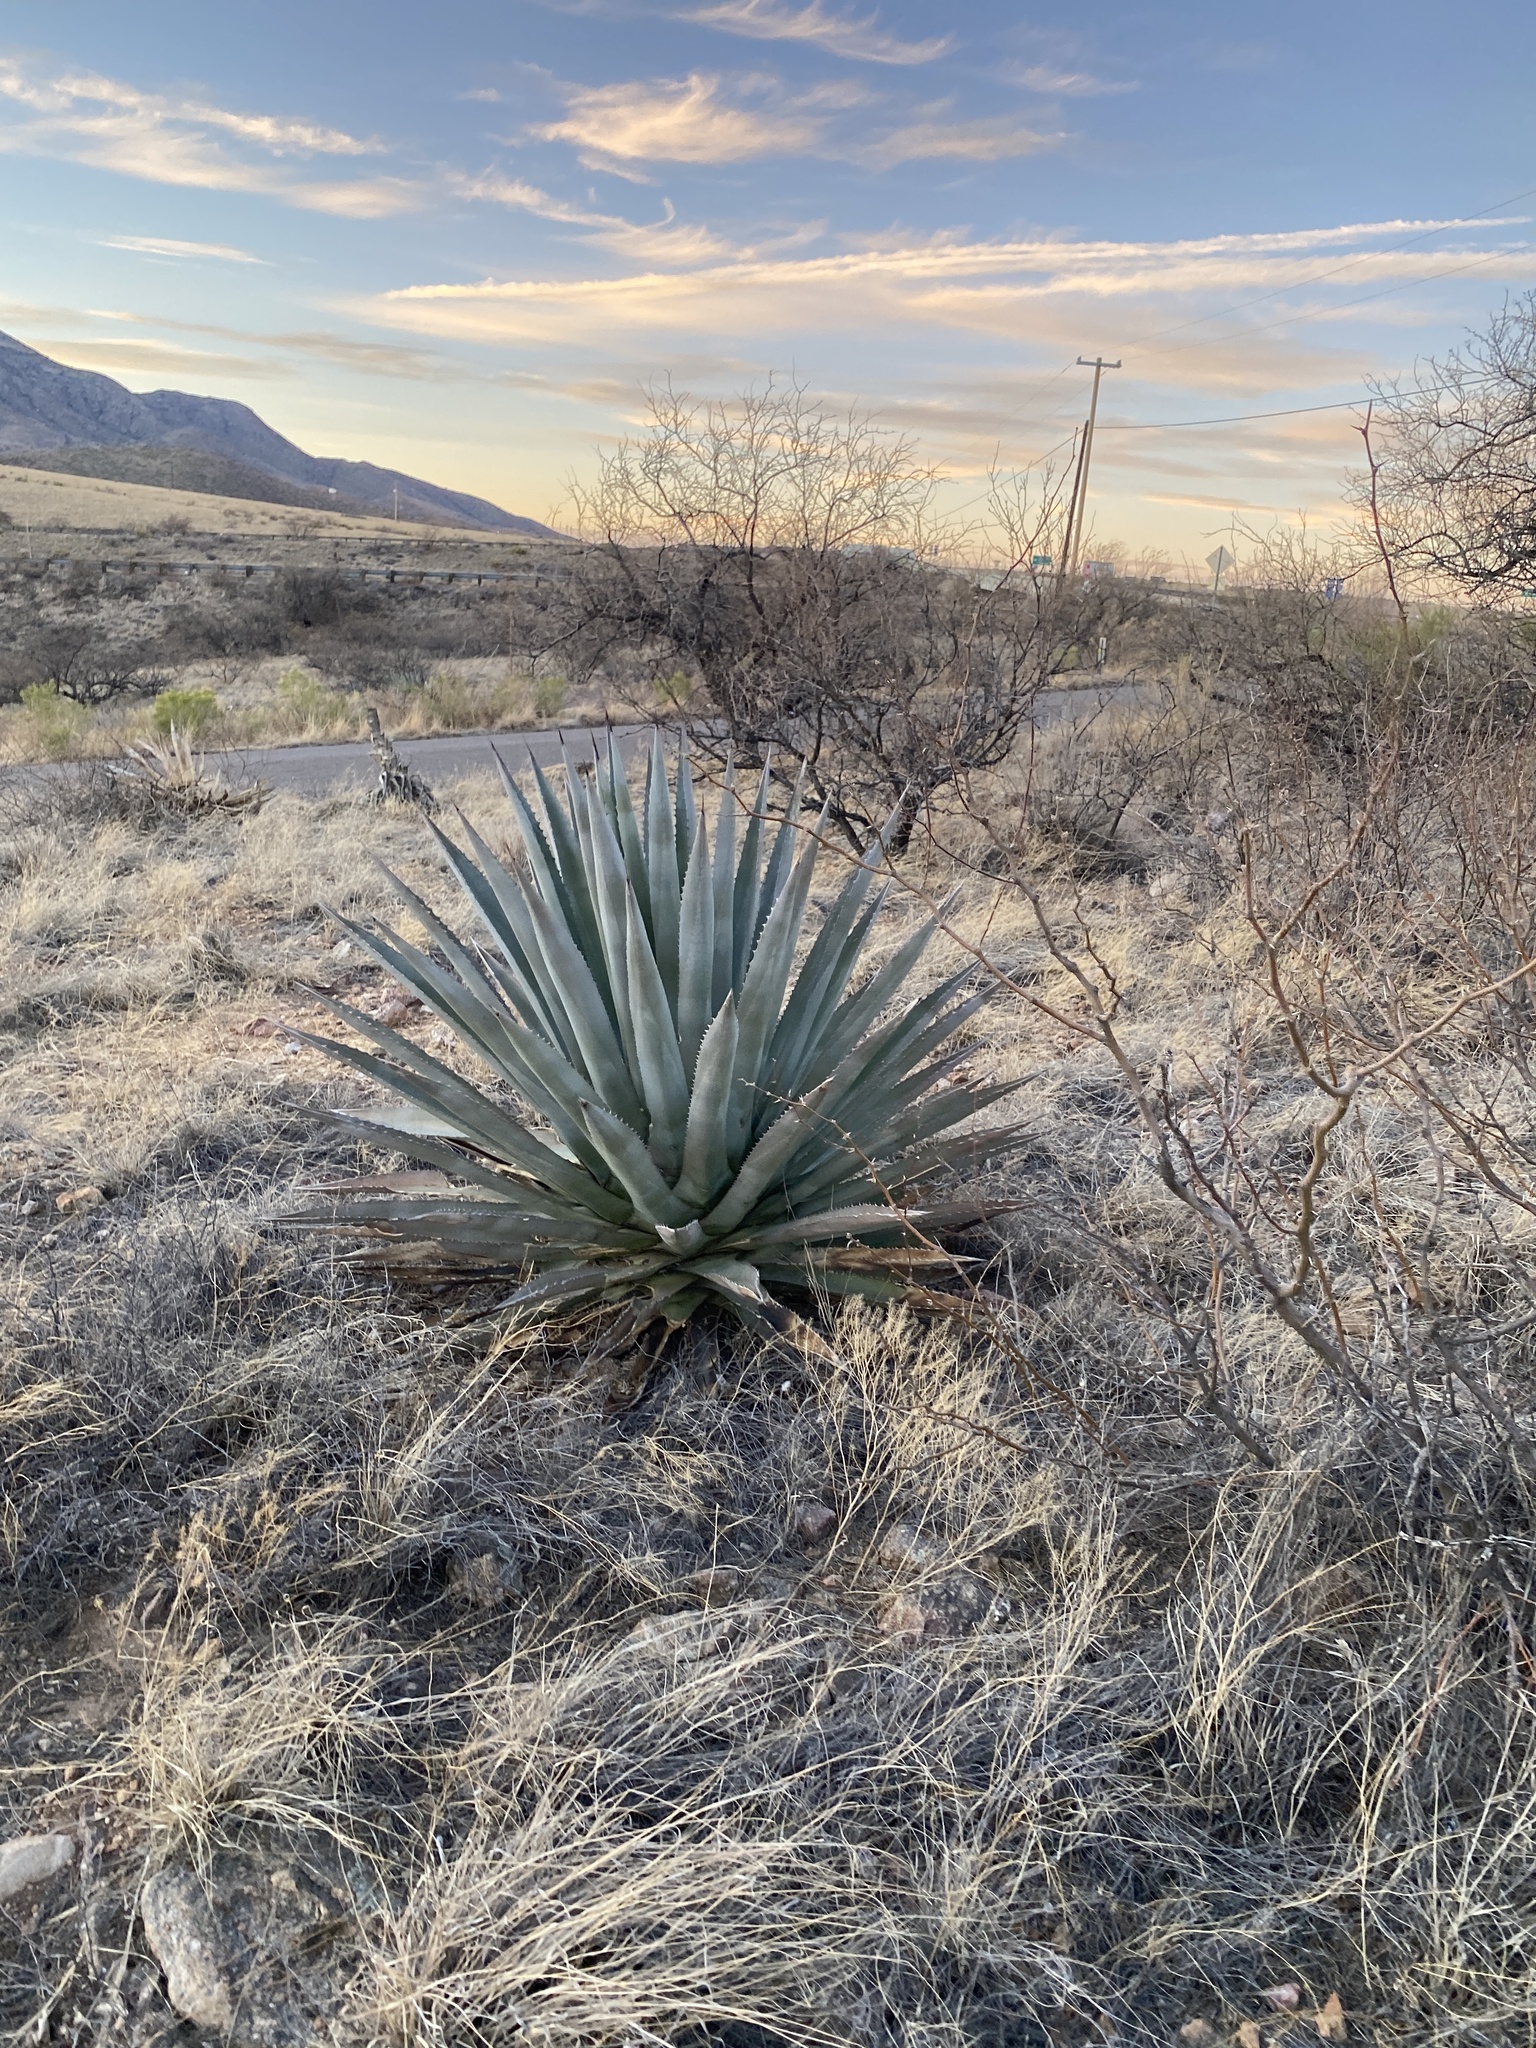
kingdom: Plantae
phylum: Tracheophyta
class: Liliopsida
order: Asparagales
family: Asparagaceae
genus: Agave
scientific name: Agave palmeri
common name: Palmer agave
